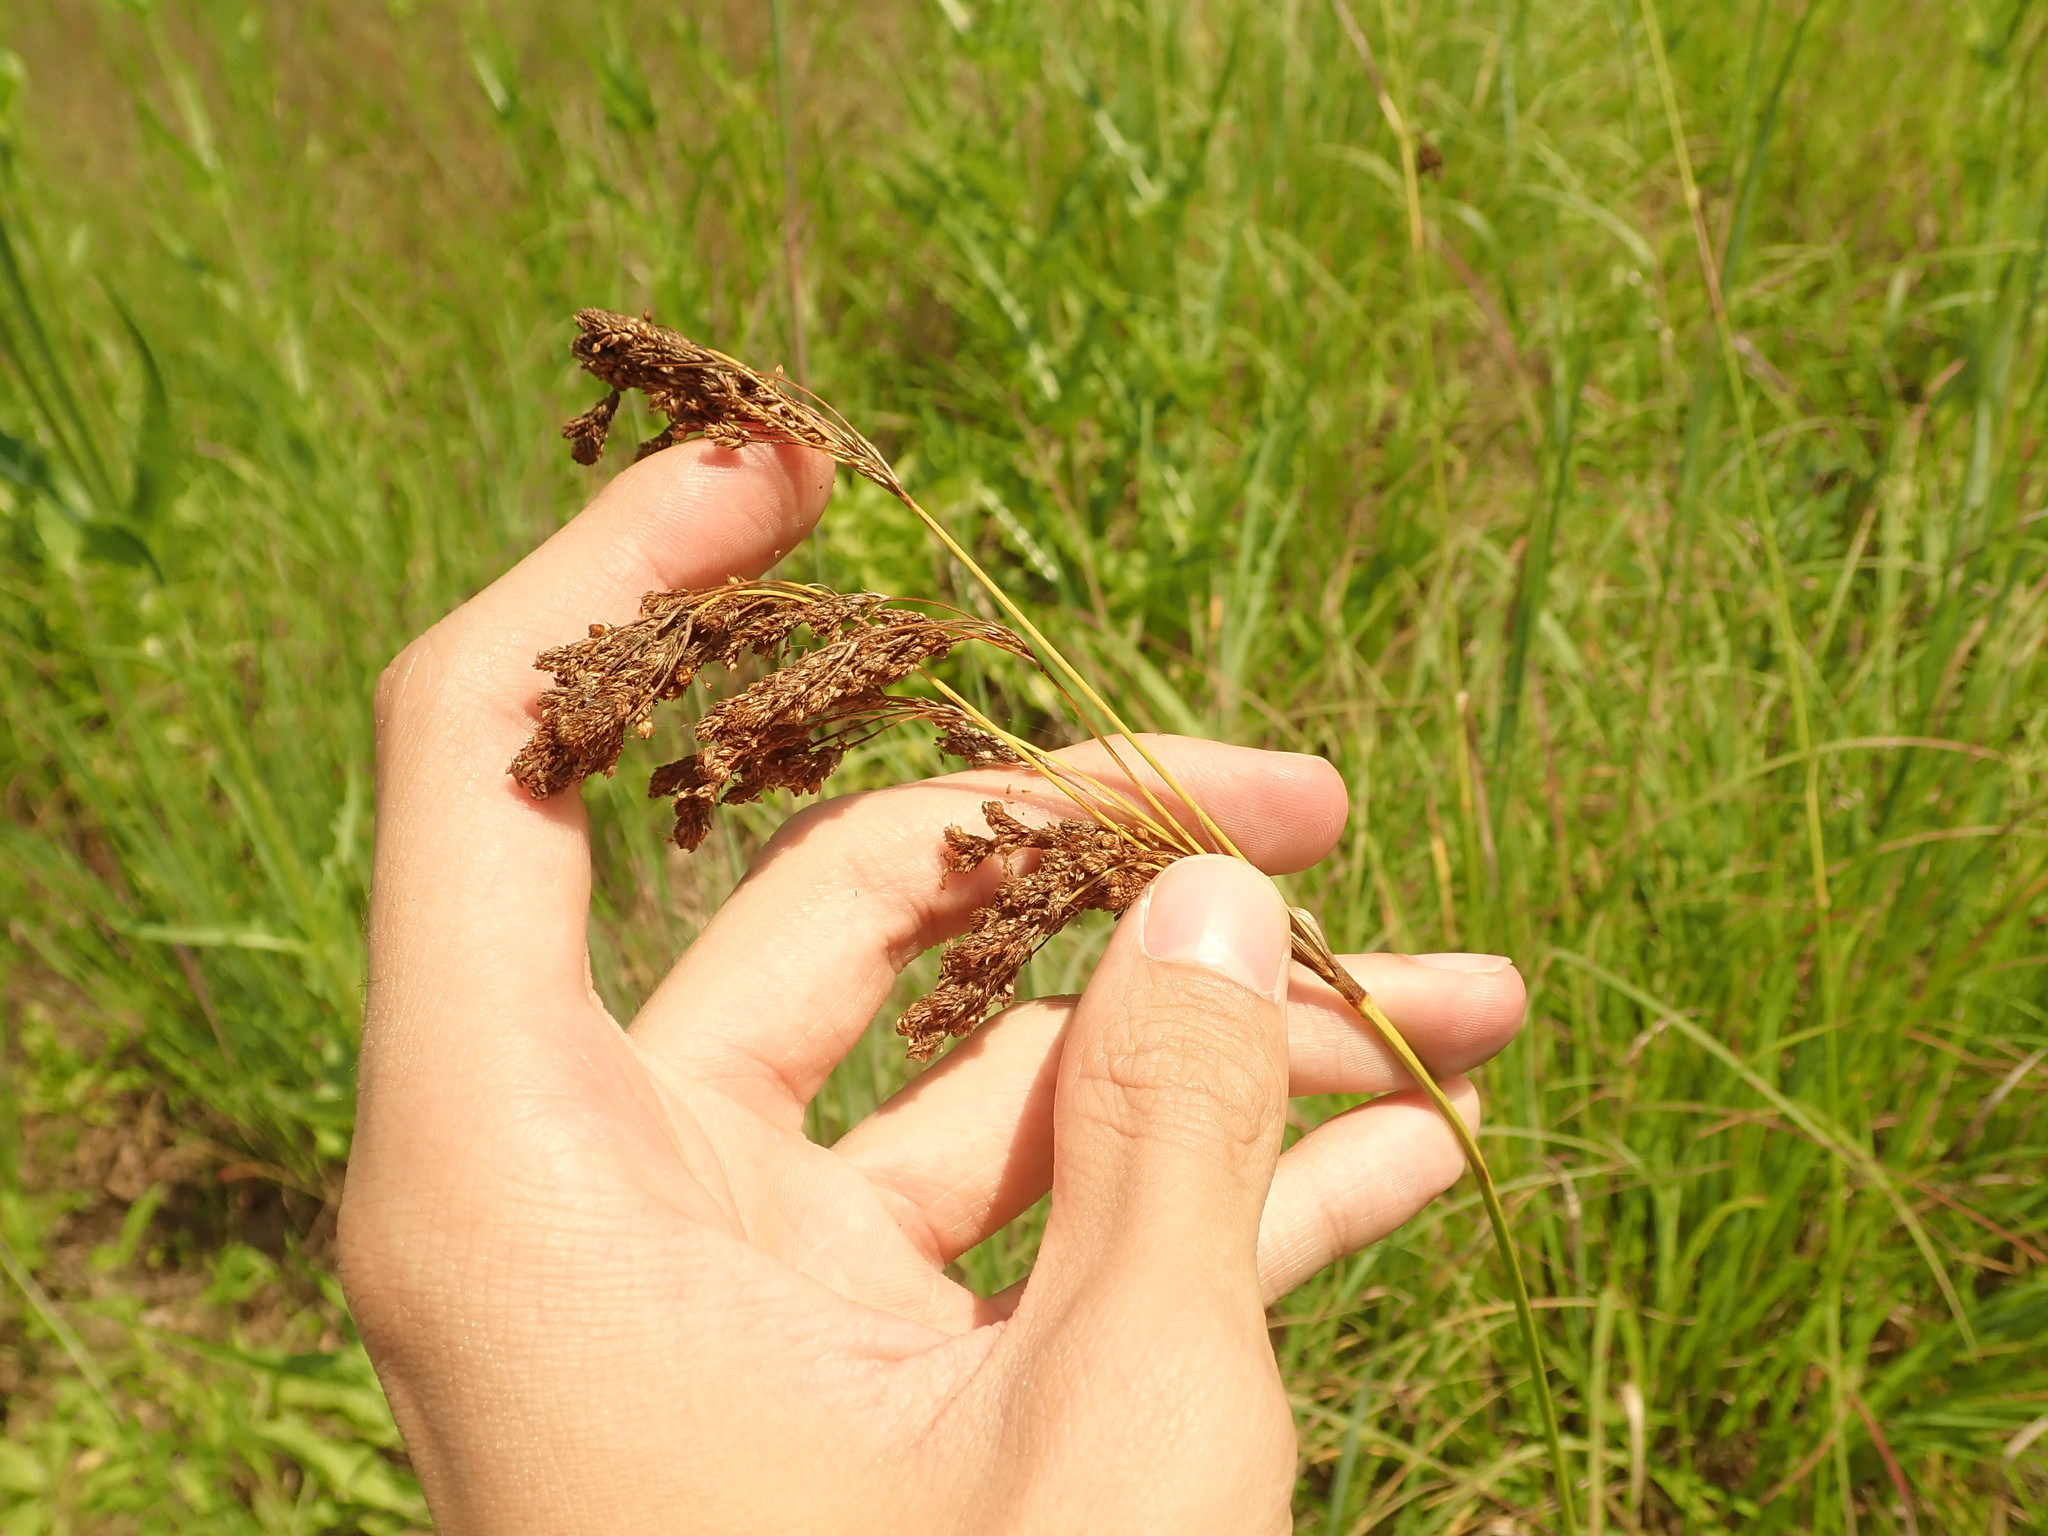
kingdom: Plantae
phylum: Tracheophyta
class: Liliopsida
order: Poales
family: Cyperaceae
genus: Scirpus
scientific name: Scirpus pendulus
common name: Nodding bulrush
